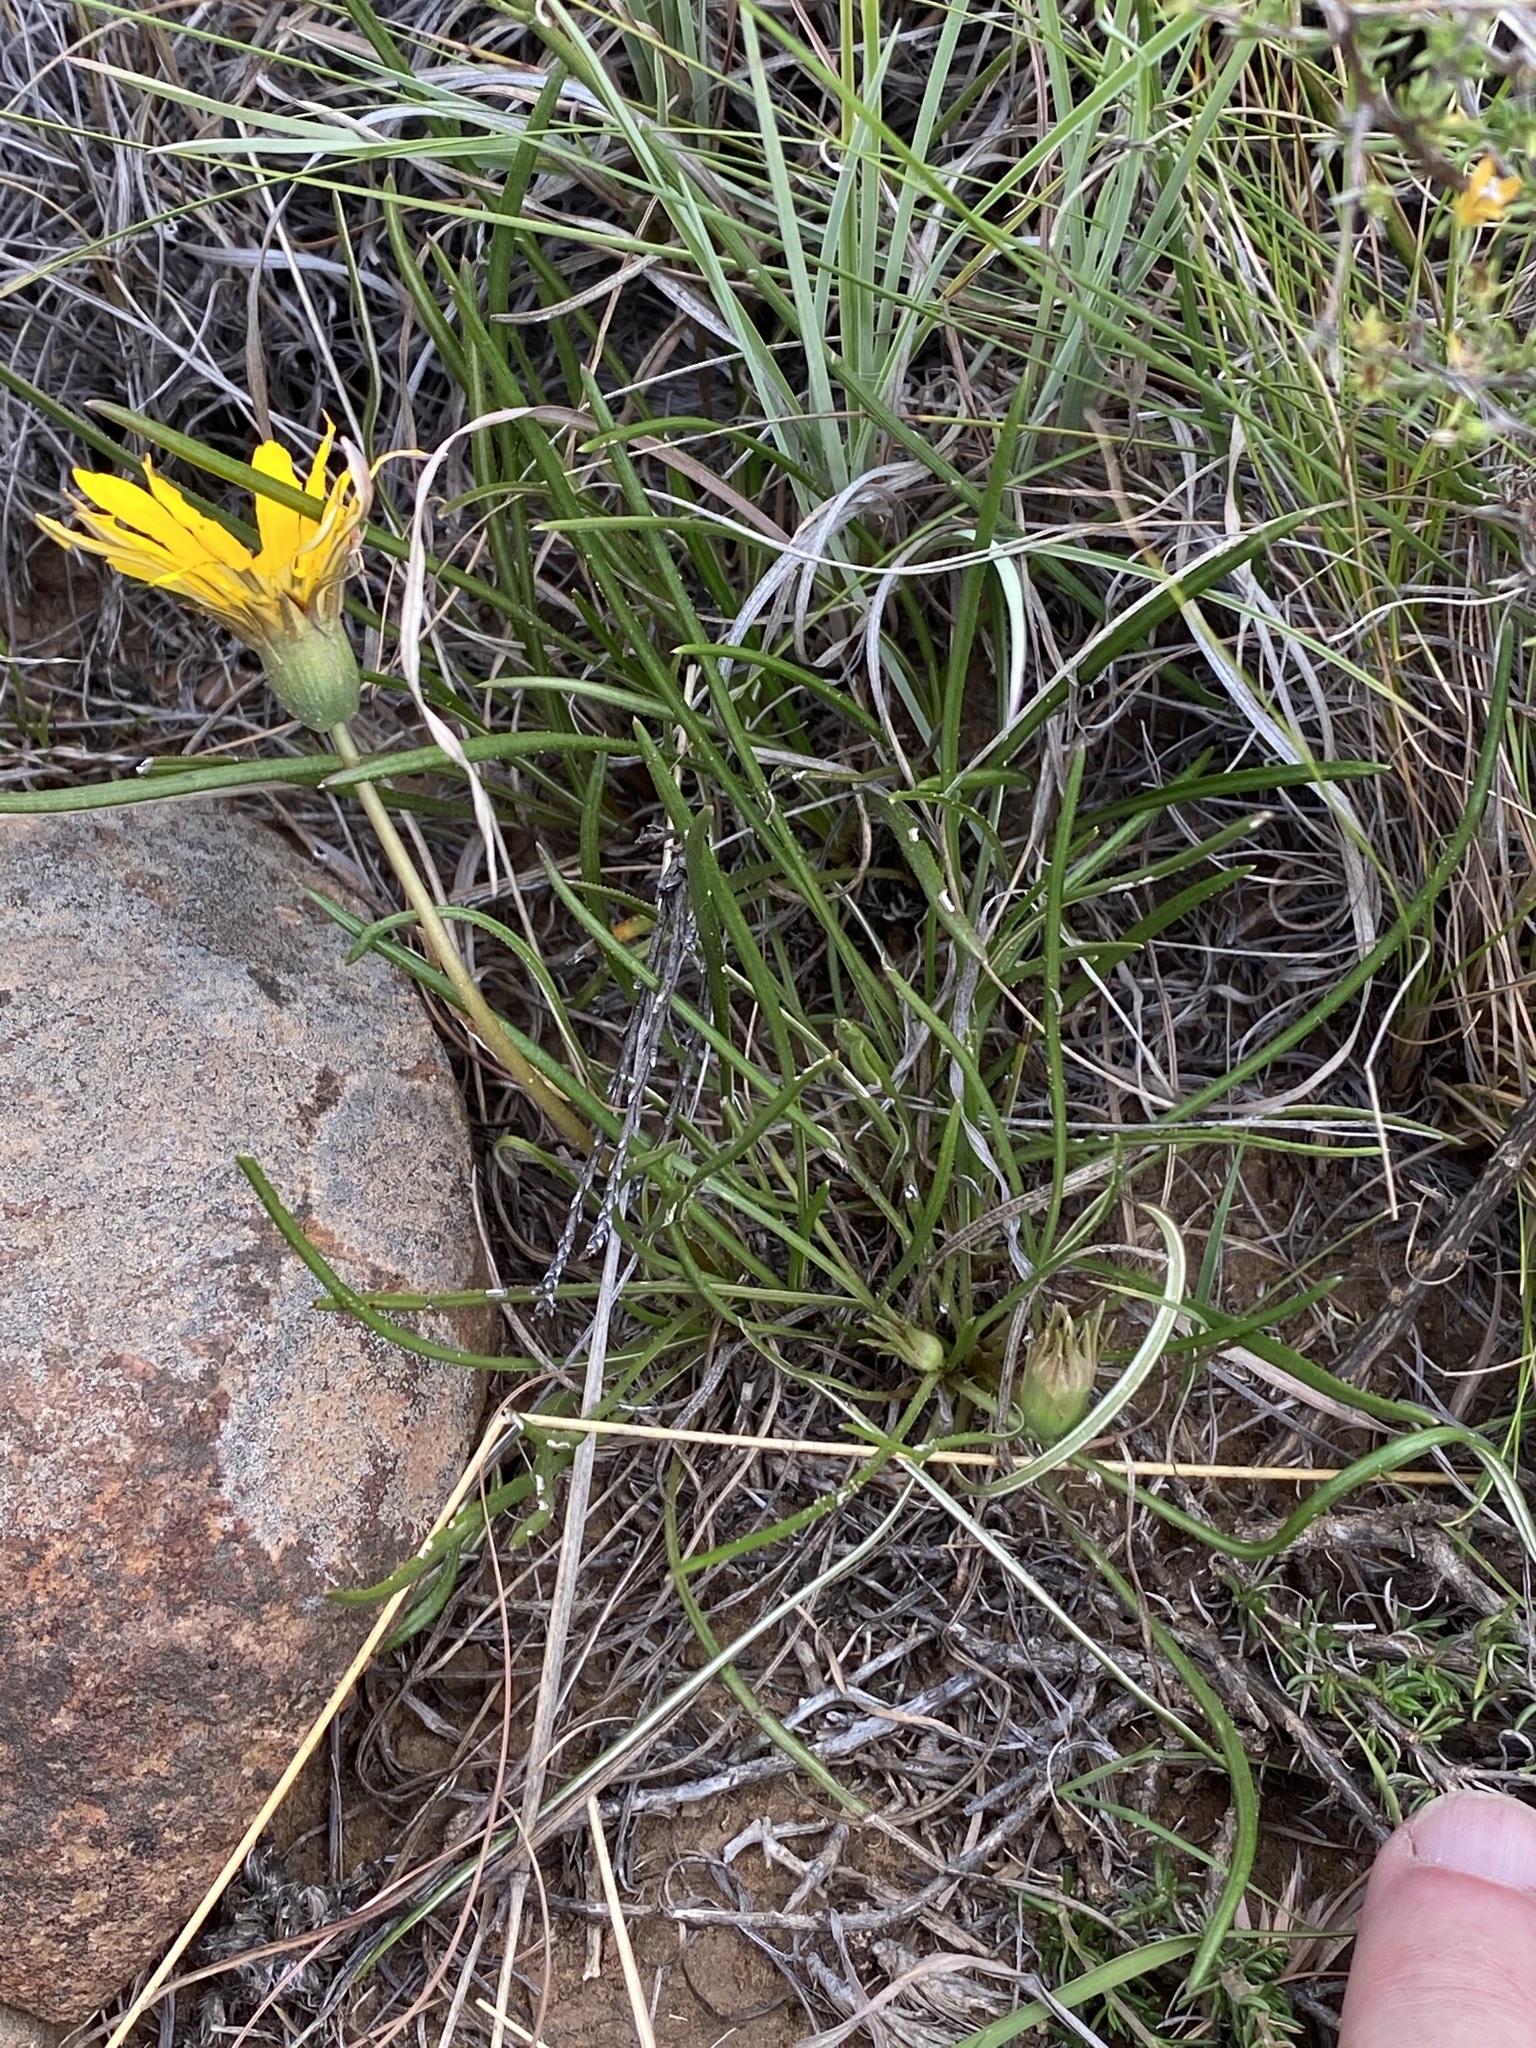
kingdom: Plantae
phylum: Tracheophyta
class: Magnoliopsida
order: Asterales
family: Asteraceae
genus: Gazania
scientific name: Gazania linearis
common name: Treasureflower
